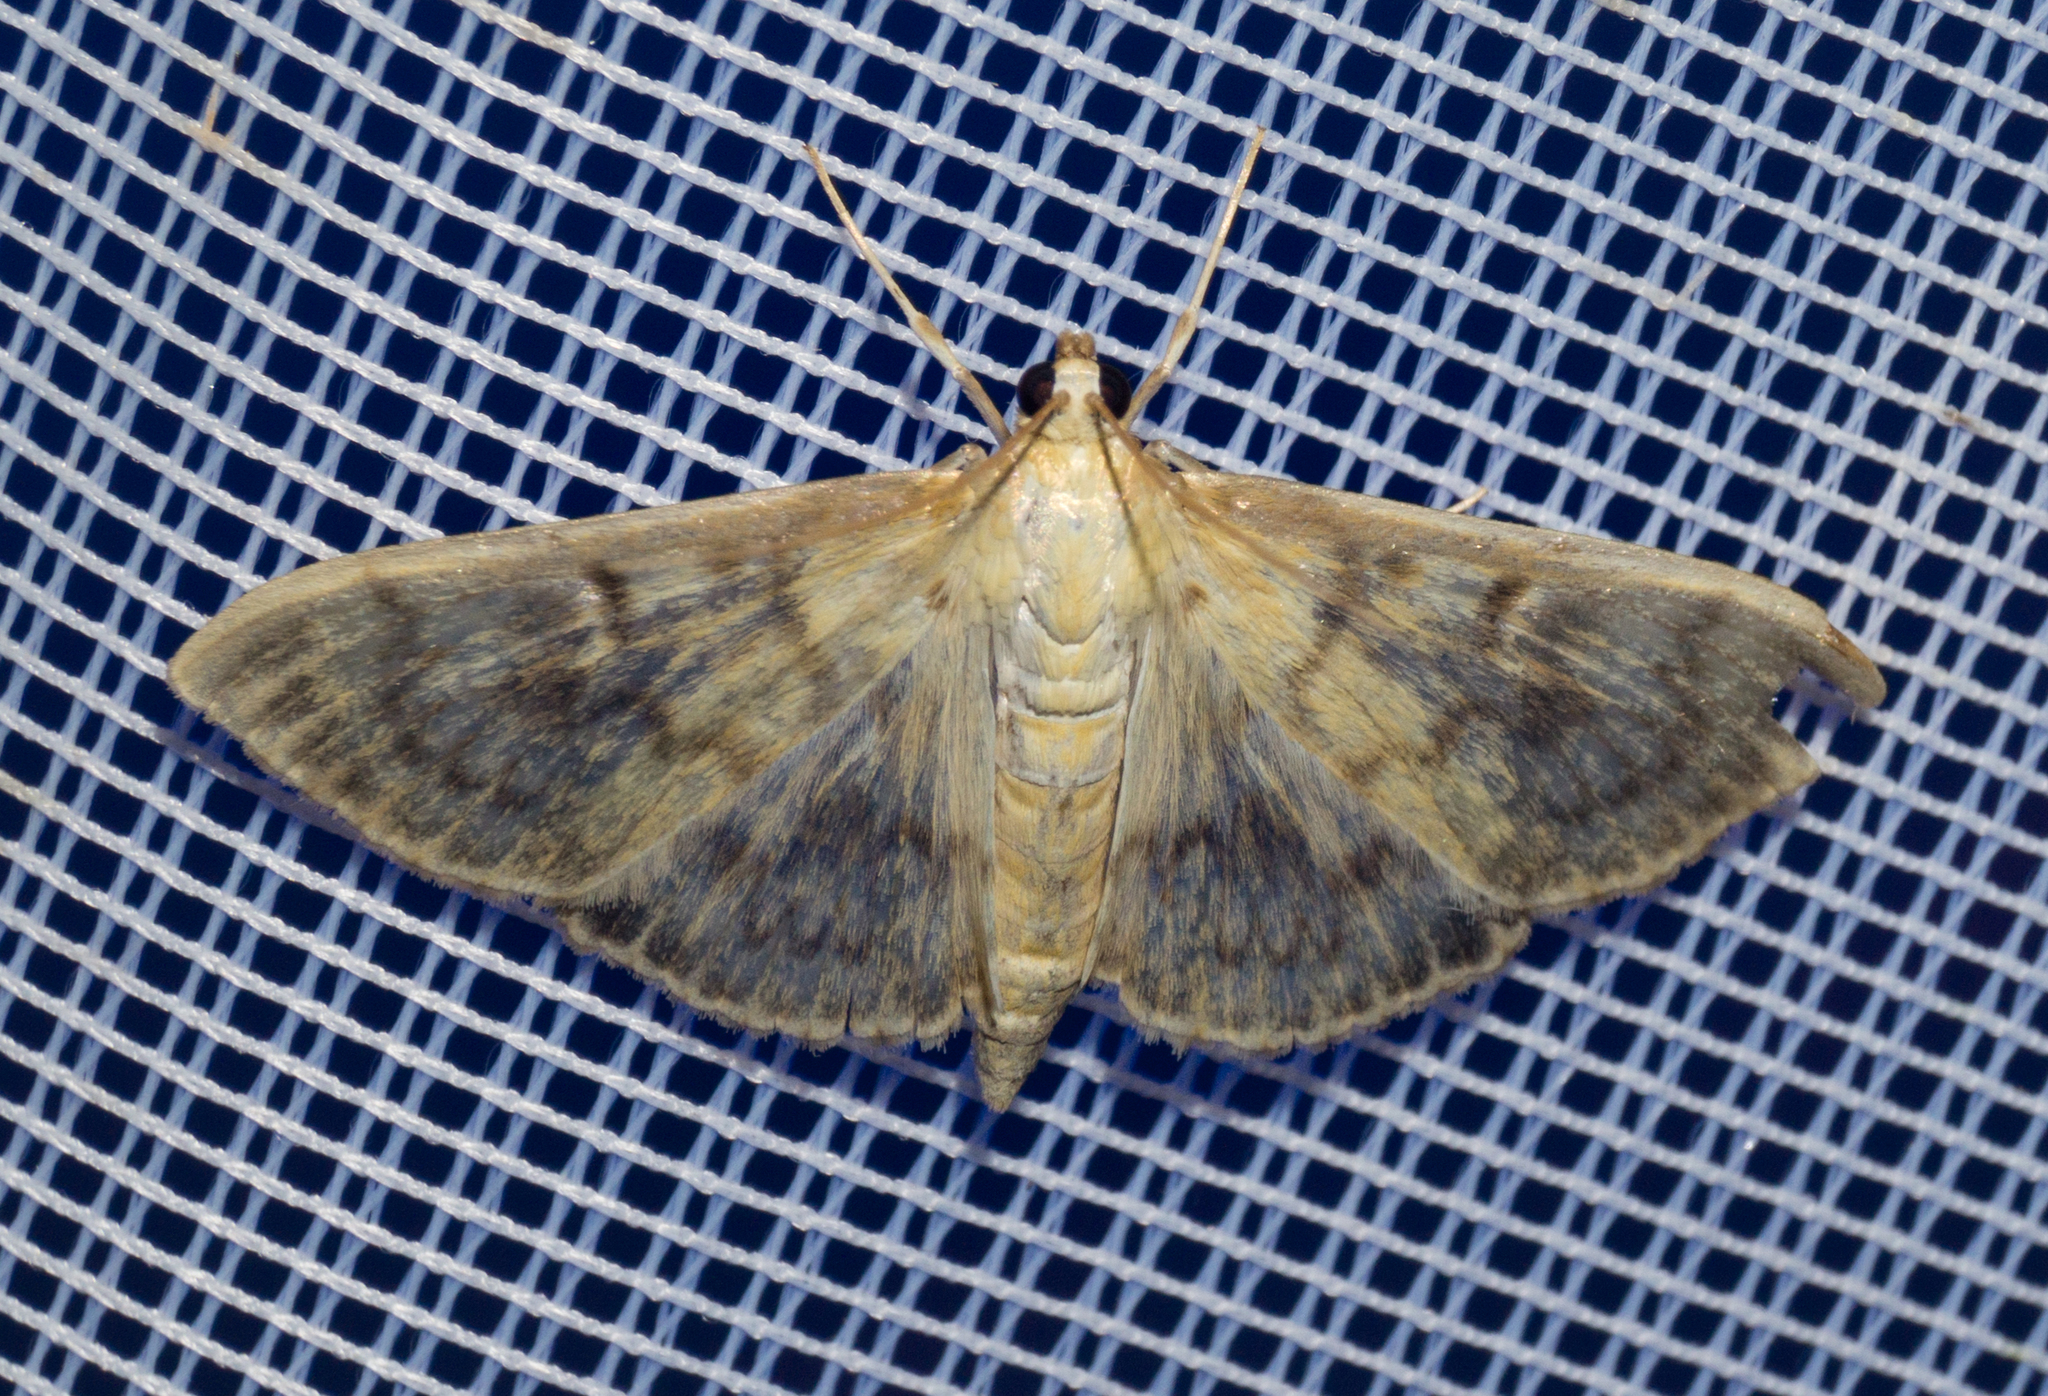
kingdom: Animalia
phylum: Arthropoda
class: Insecta
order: Lepidoptera
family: Crambidae
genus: Patania
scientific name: Patania ruralis
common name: Mother of pearl
